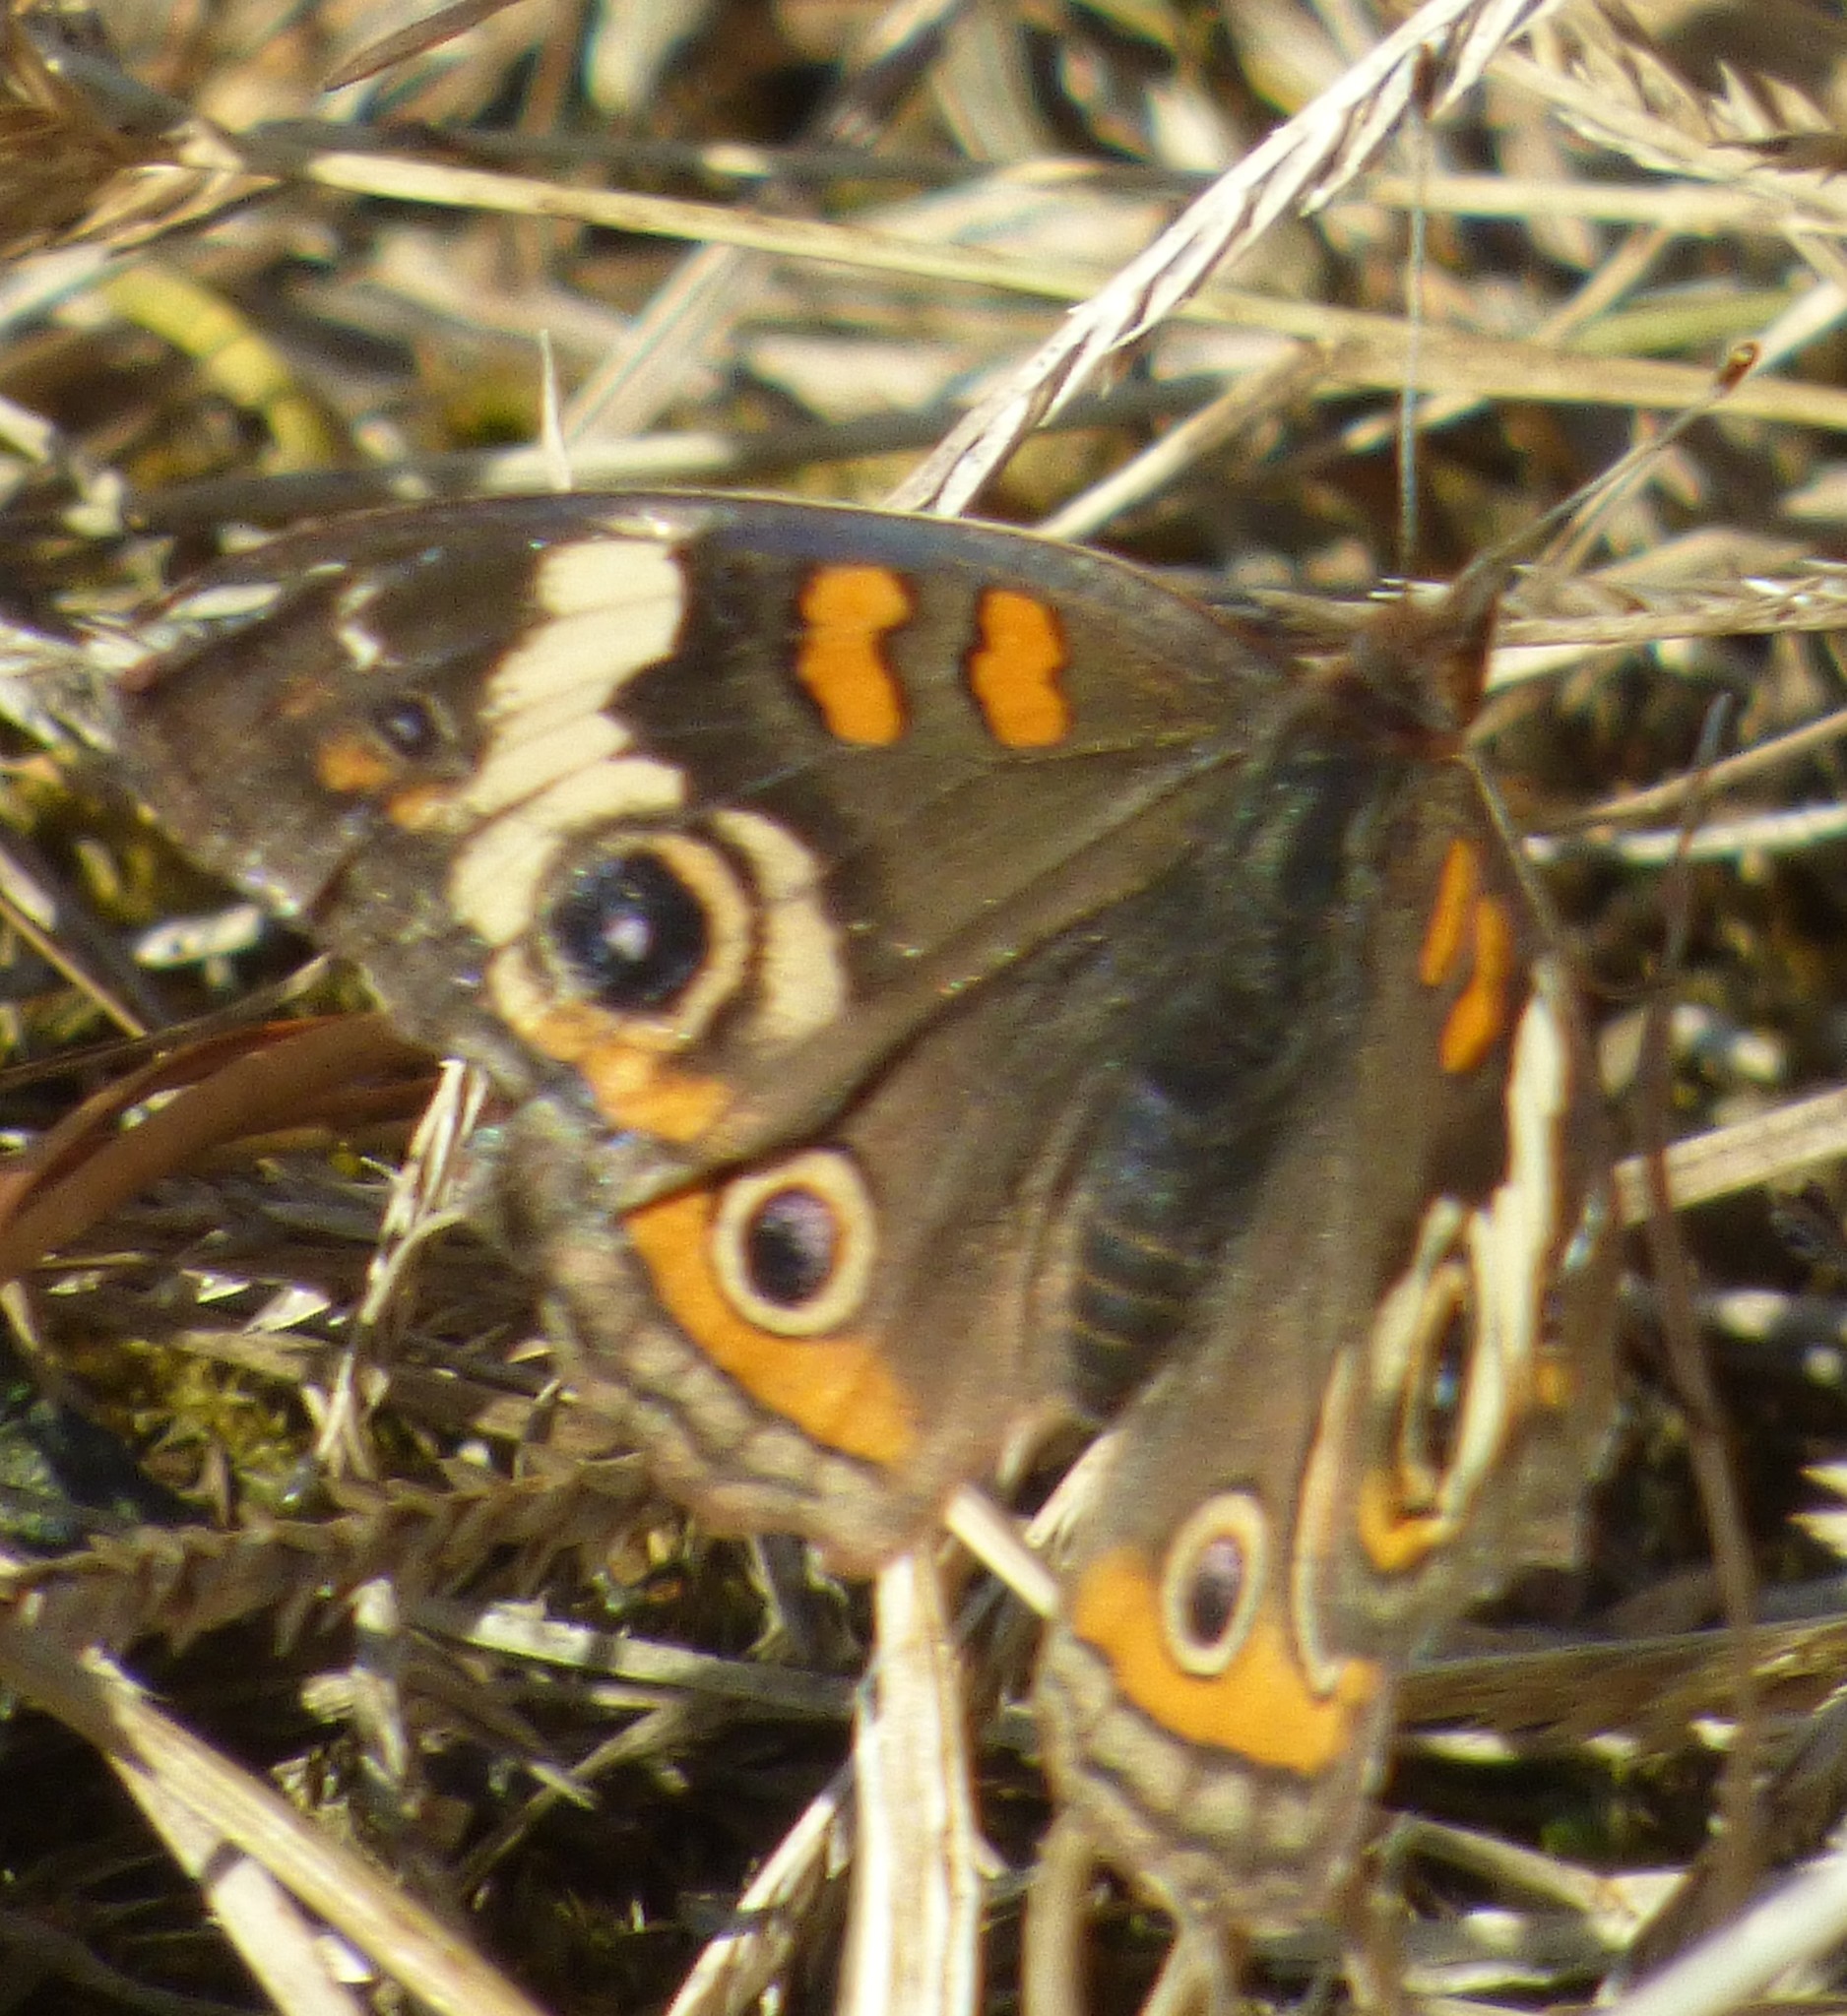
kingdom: Animalia
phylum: Arthropoda
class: Insecta
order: Lepidoptera
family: Nymphalidae
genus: Junonia
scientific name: Junonia coenia
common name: Common buckeye
